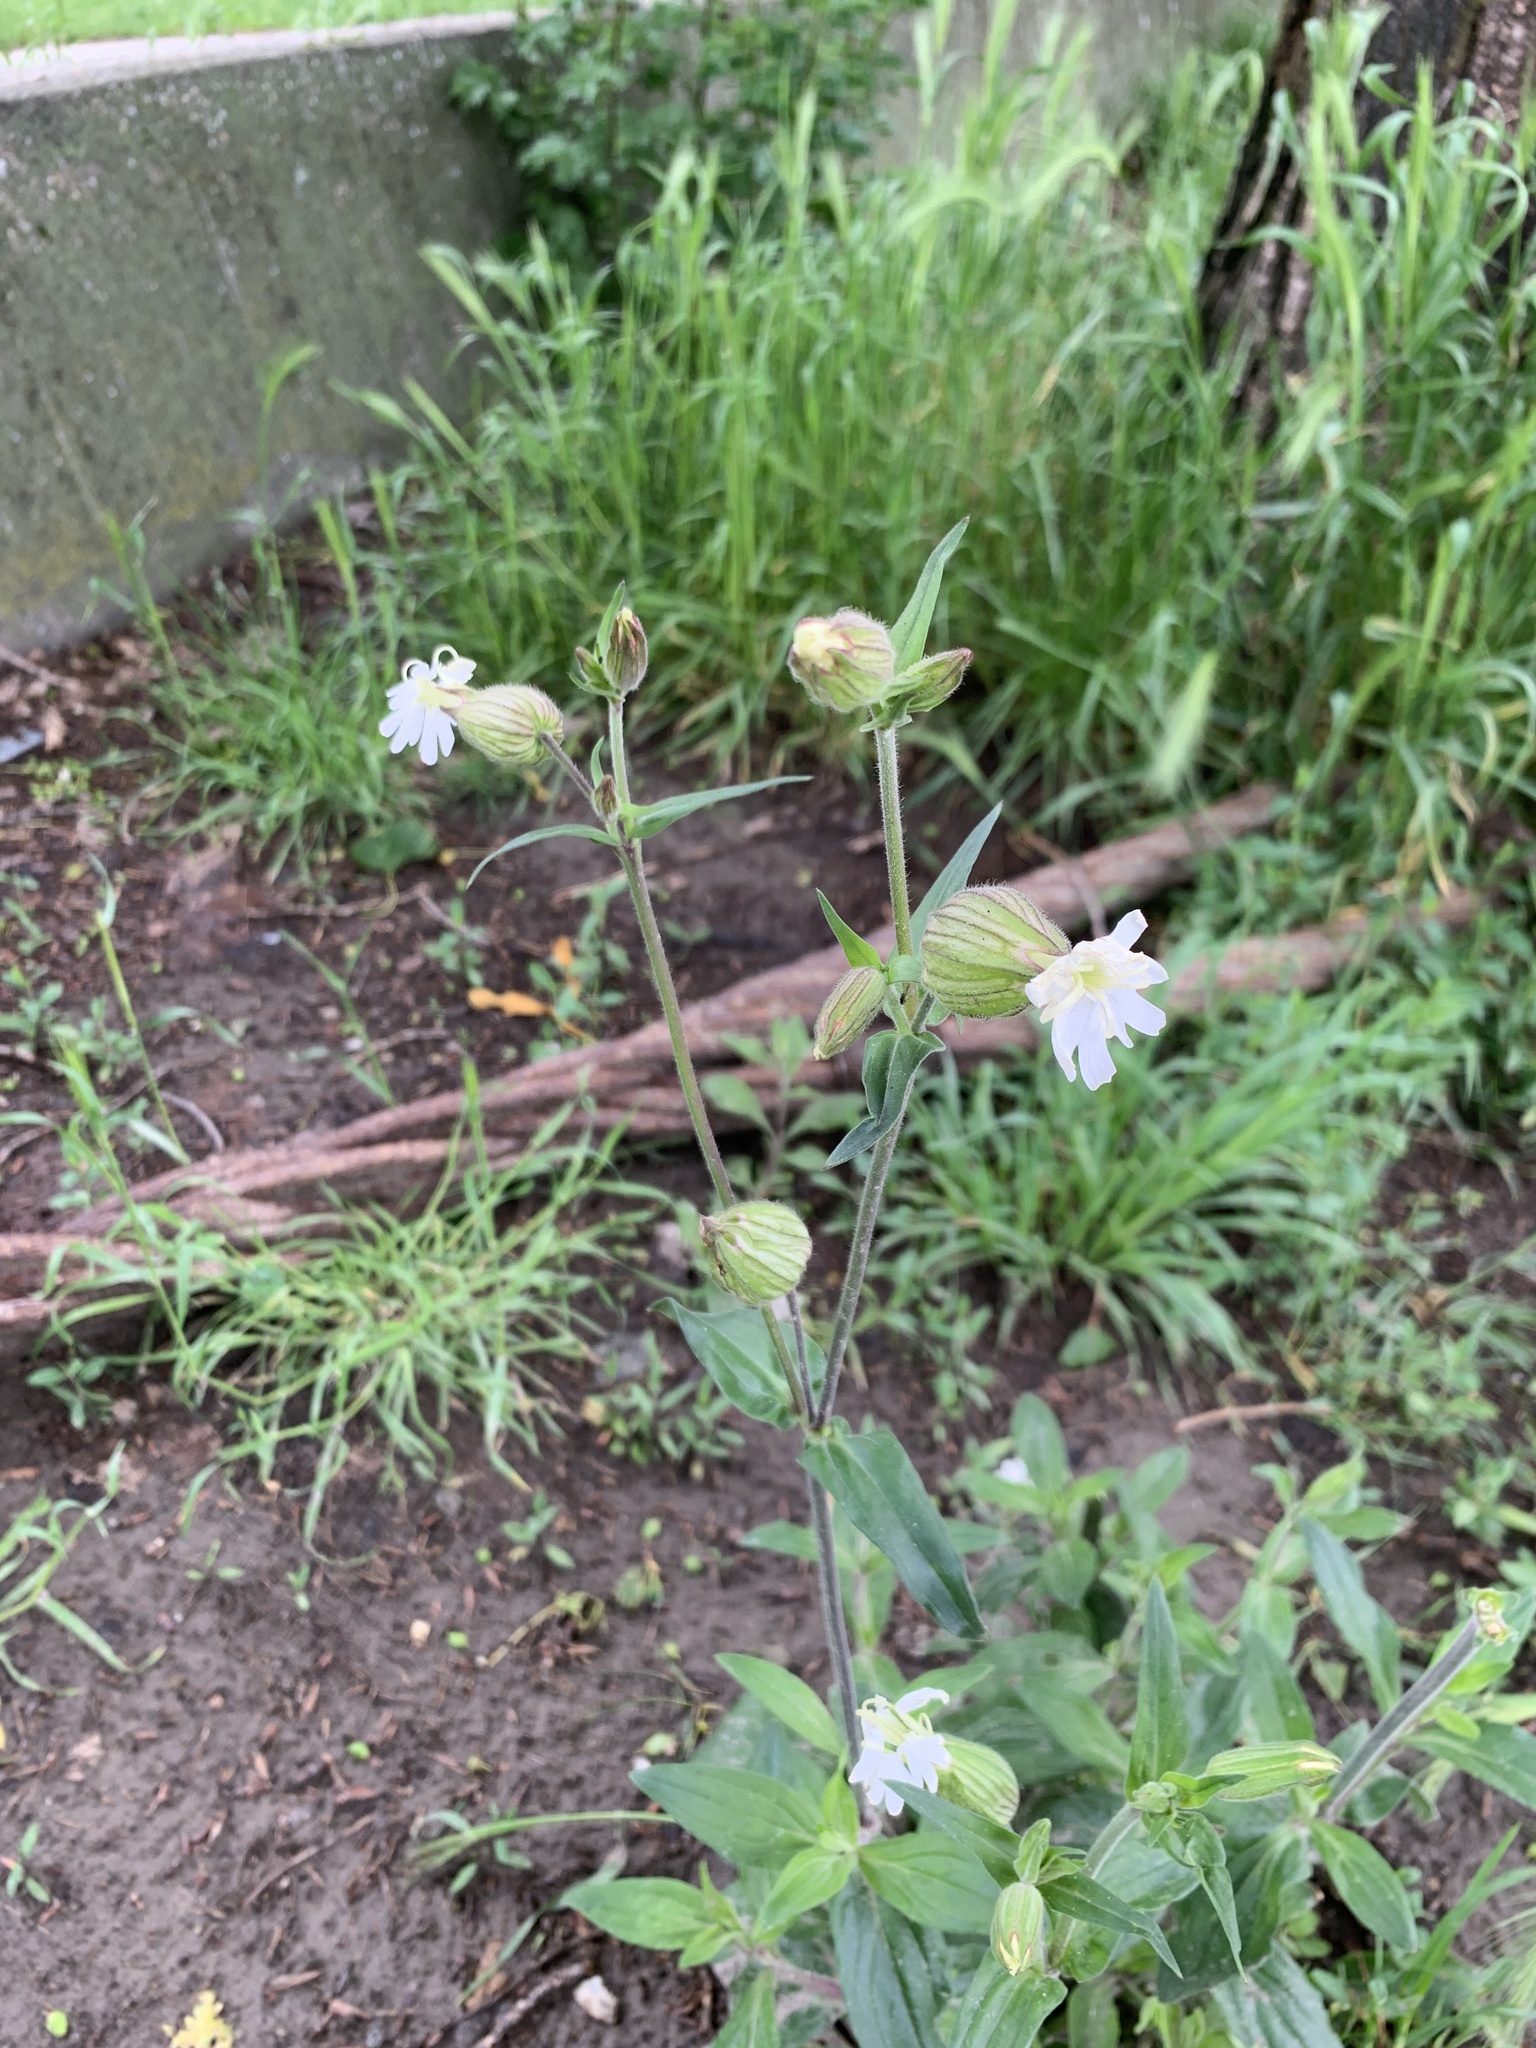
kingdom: Plantae
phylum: Tracheophyta
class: Magnoliopsida
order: Caryophyllales
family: Caryophyllaceae
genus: Silene
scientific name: Silene latifolia
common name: White campion
